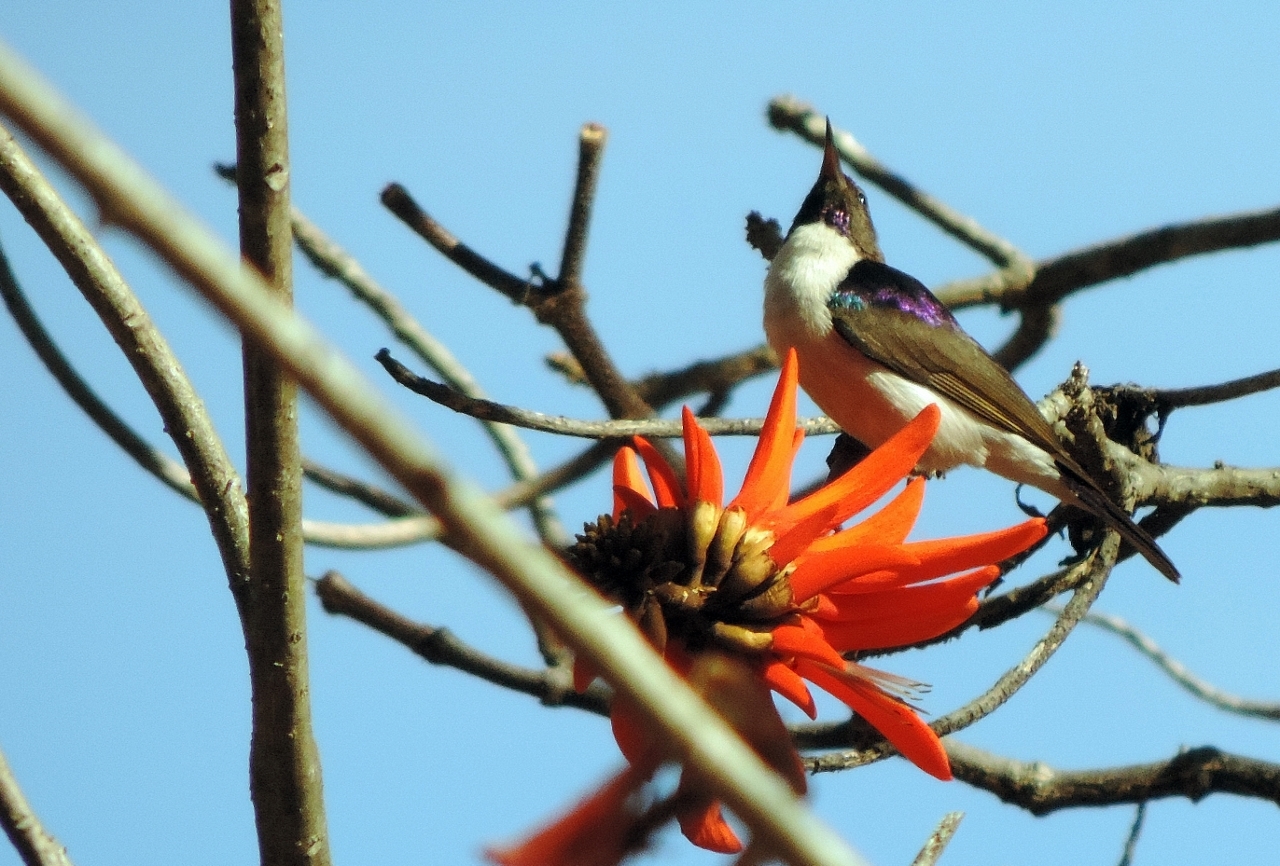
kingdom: Animalia
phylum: Chordata
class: Aves
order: Passeriformes
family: Nectariniidae
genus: Anthreptes
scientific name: Anthreptes longuemarei
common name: Western violet-backed sunbird
